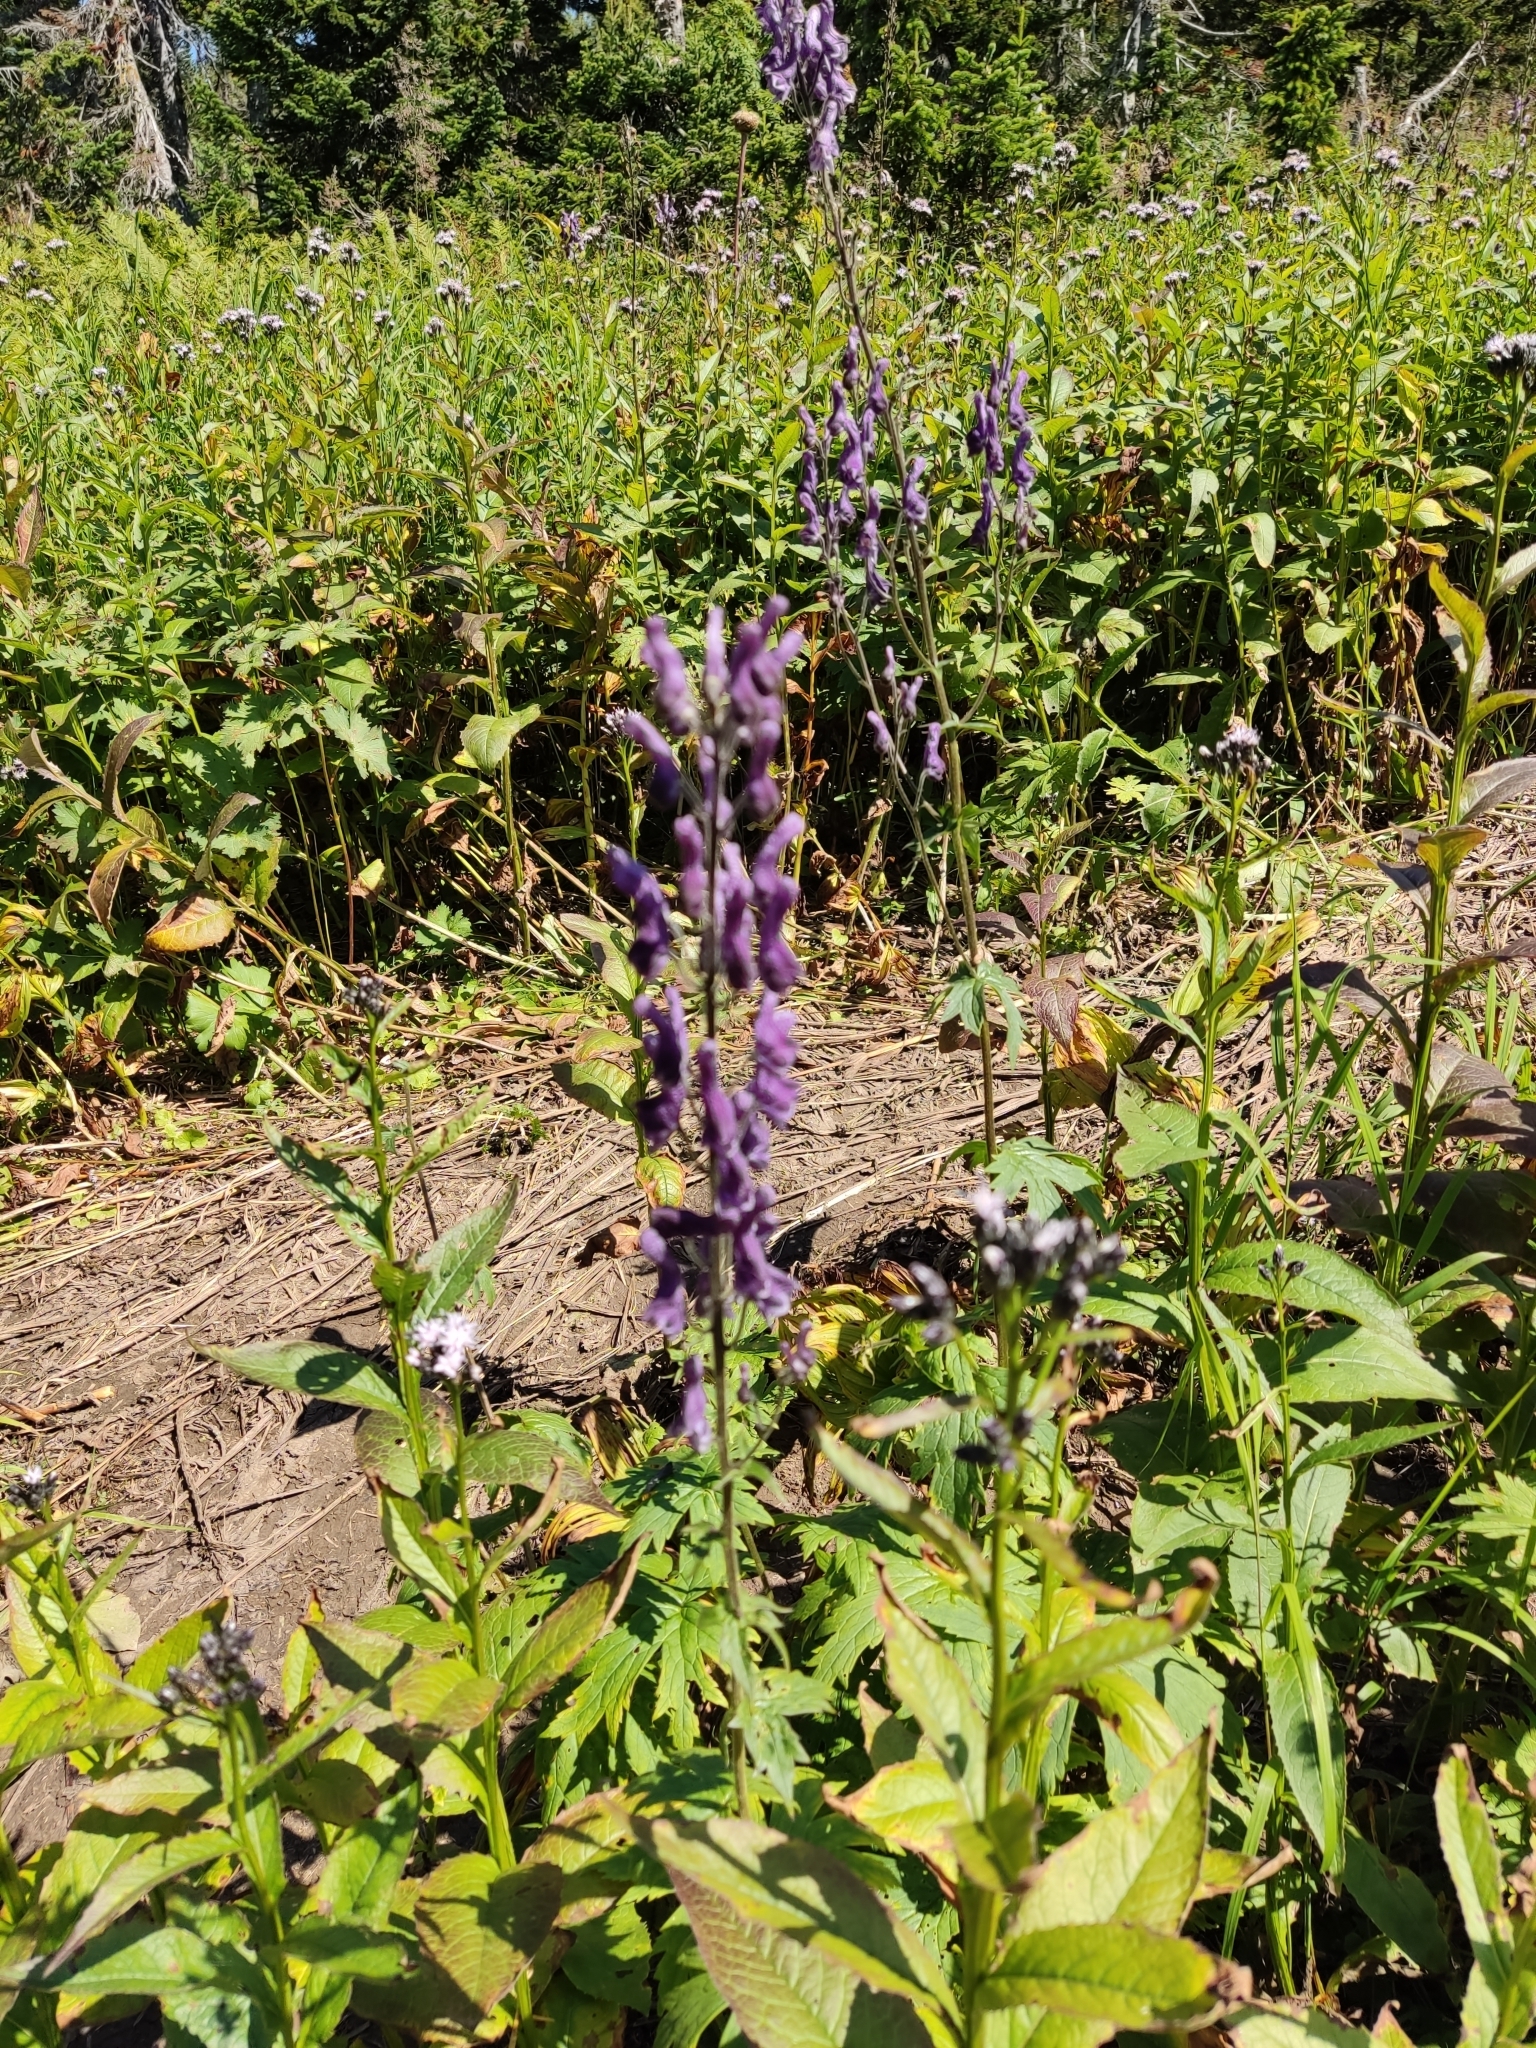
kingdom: Plantae
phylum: Tracheophyta
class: Magnoliopsida
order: Ranunculales
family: Ranunculaceae
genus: Aconitum
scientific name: Aconitum septentrionale
